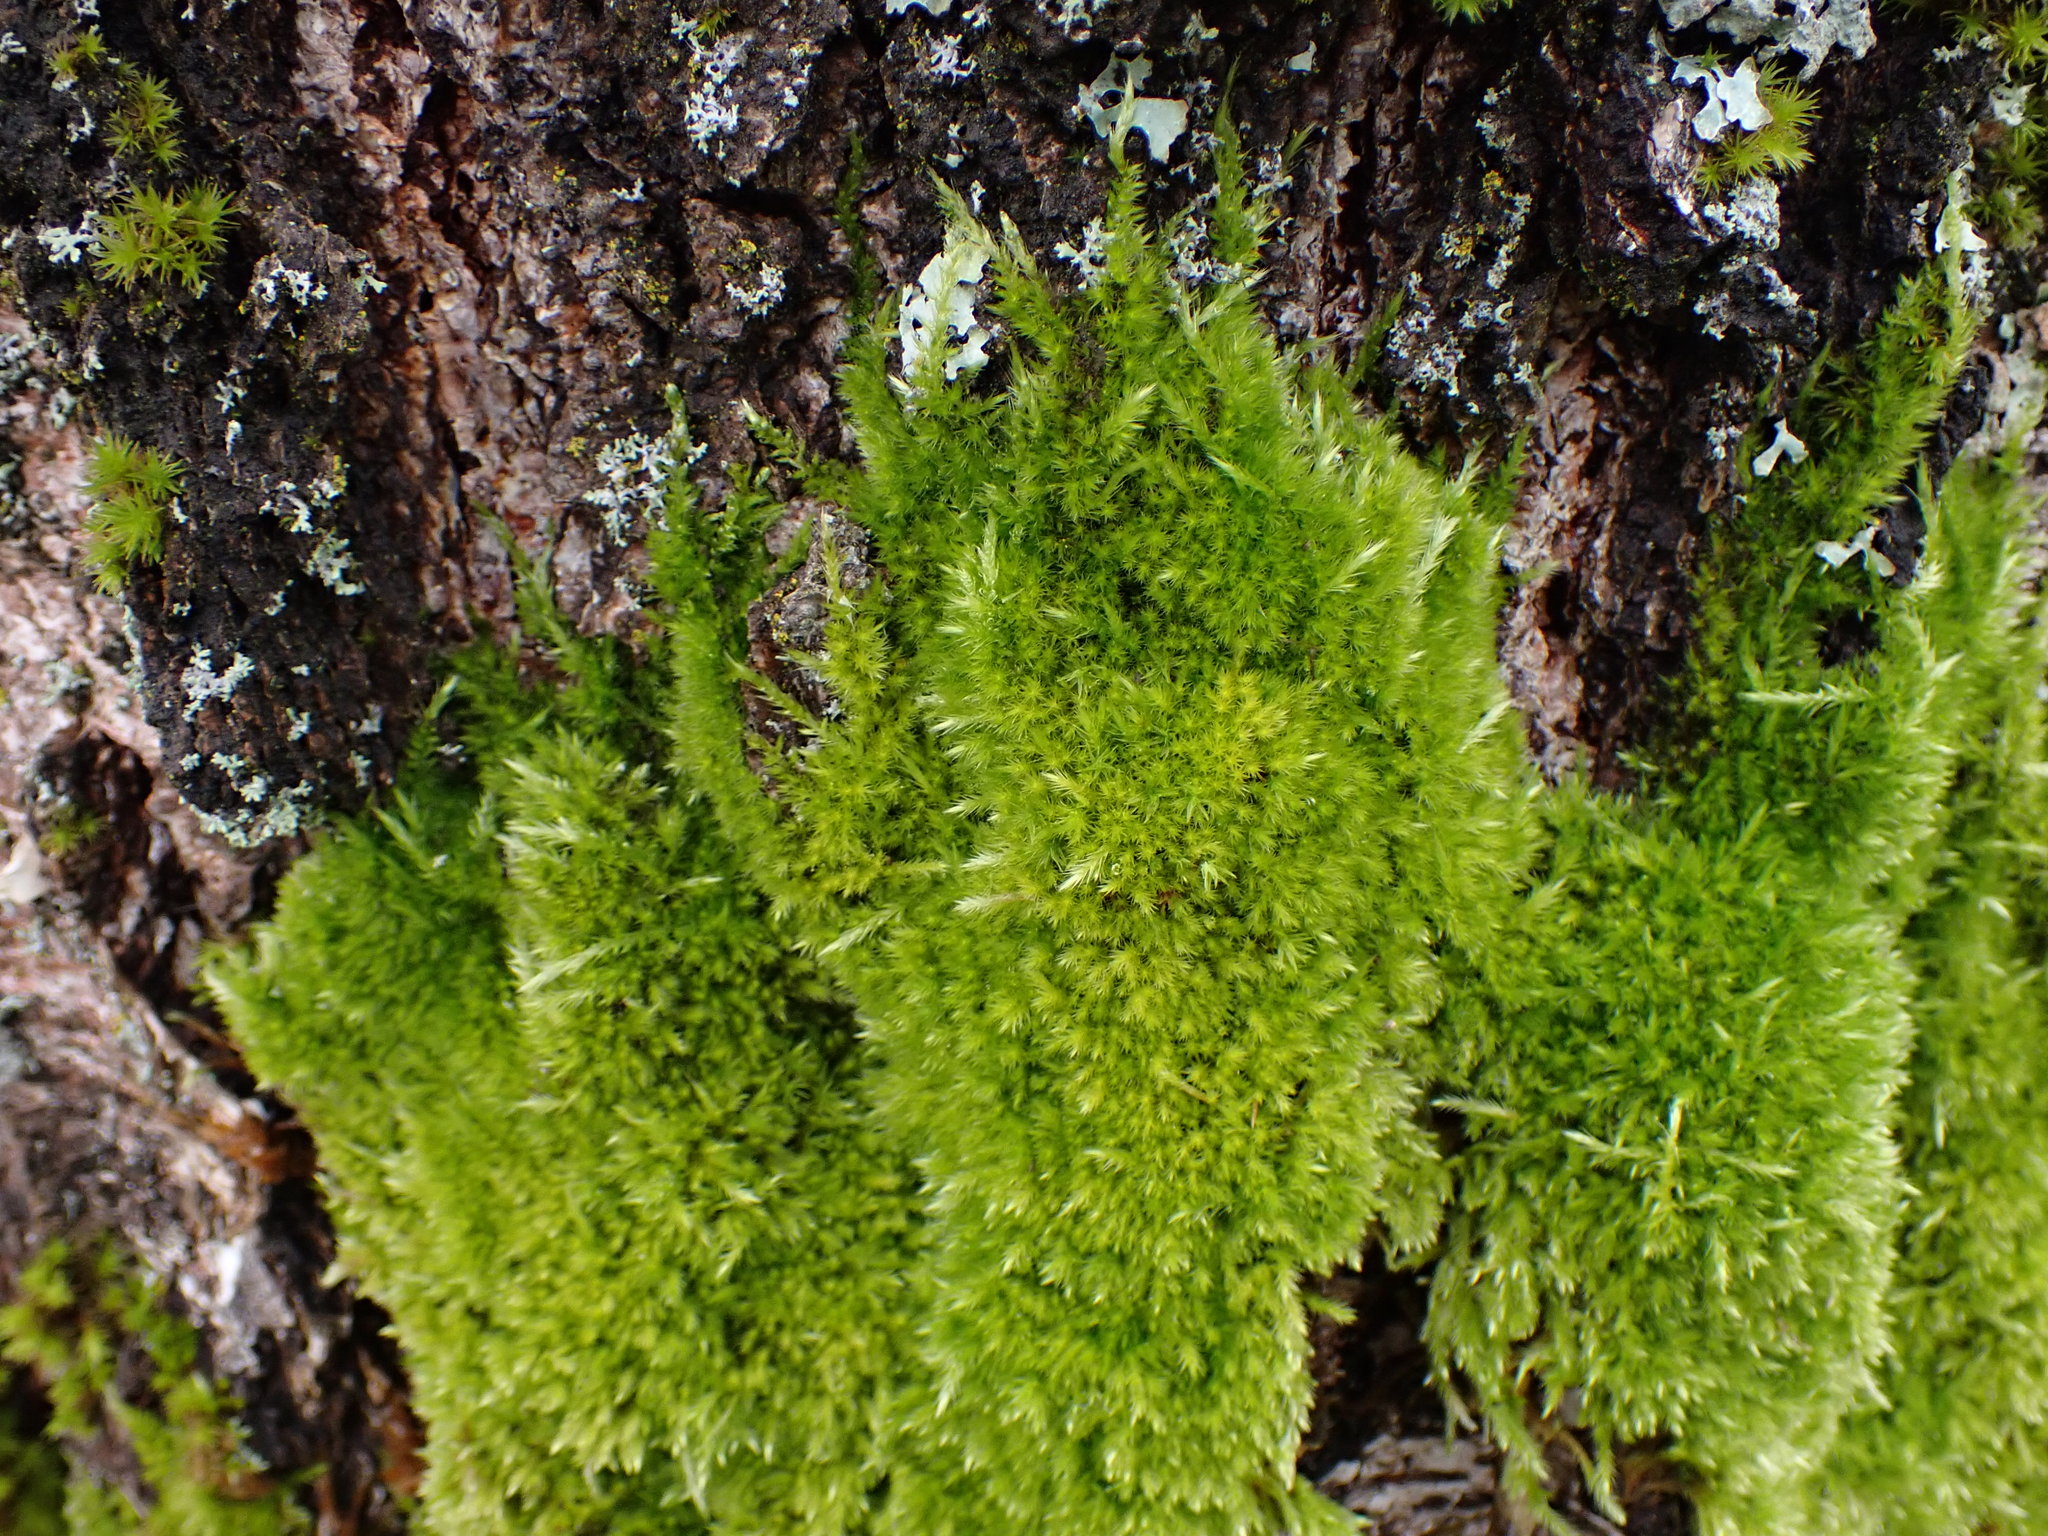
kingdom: Plantae
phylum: Bryophyta
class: Bryopsida
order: Hypnales
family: Brachytheciaceae
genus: Homalothecium
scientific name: Homalothecium nuttallii
